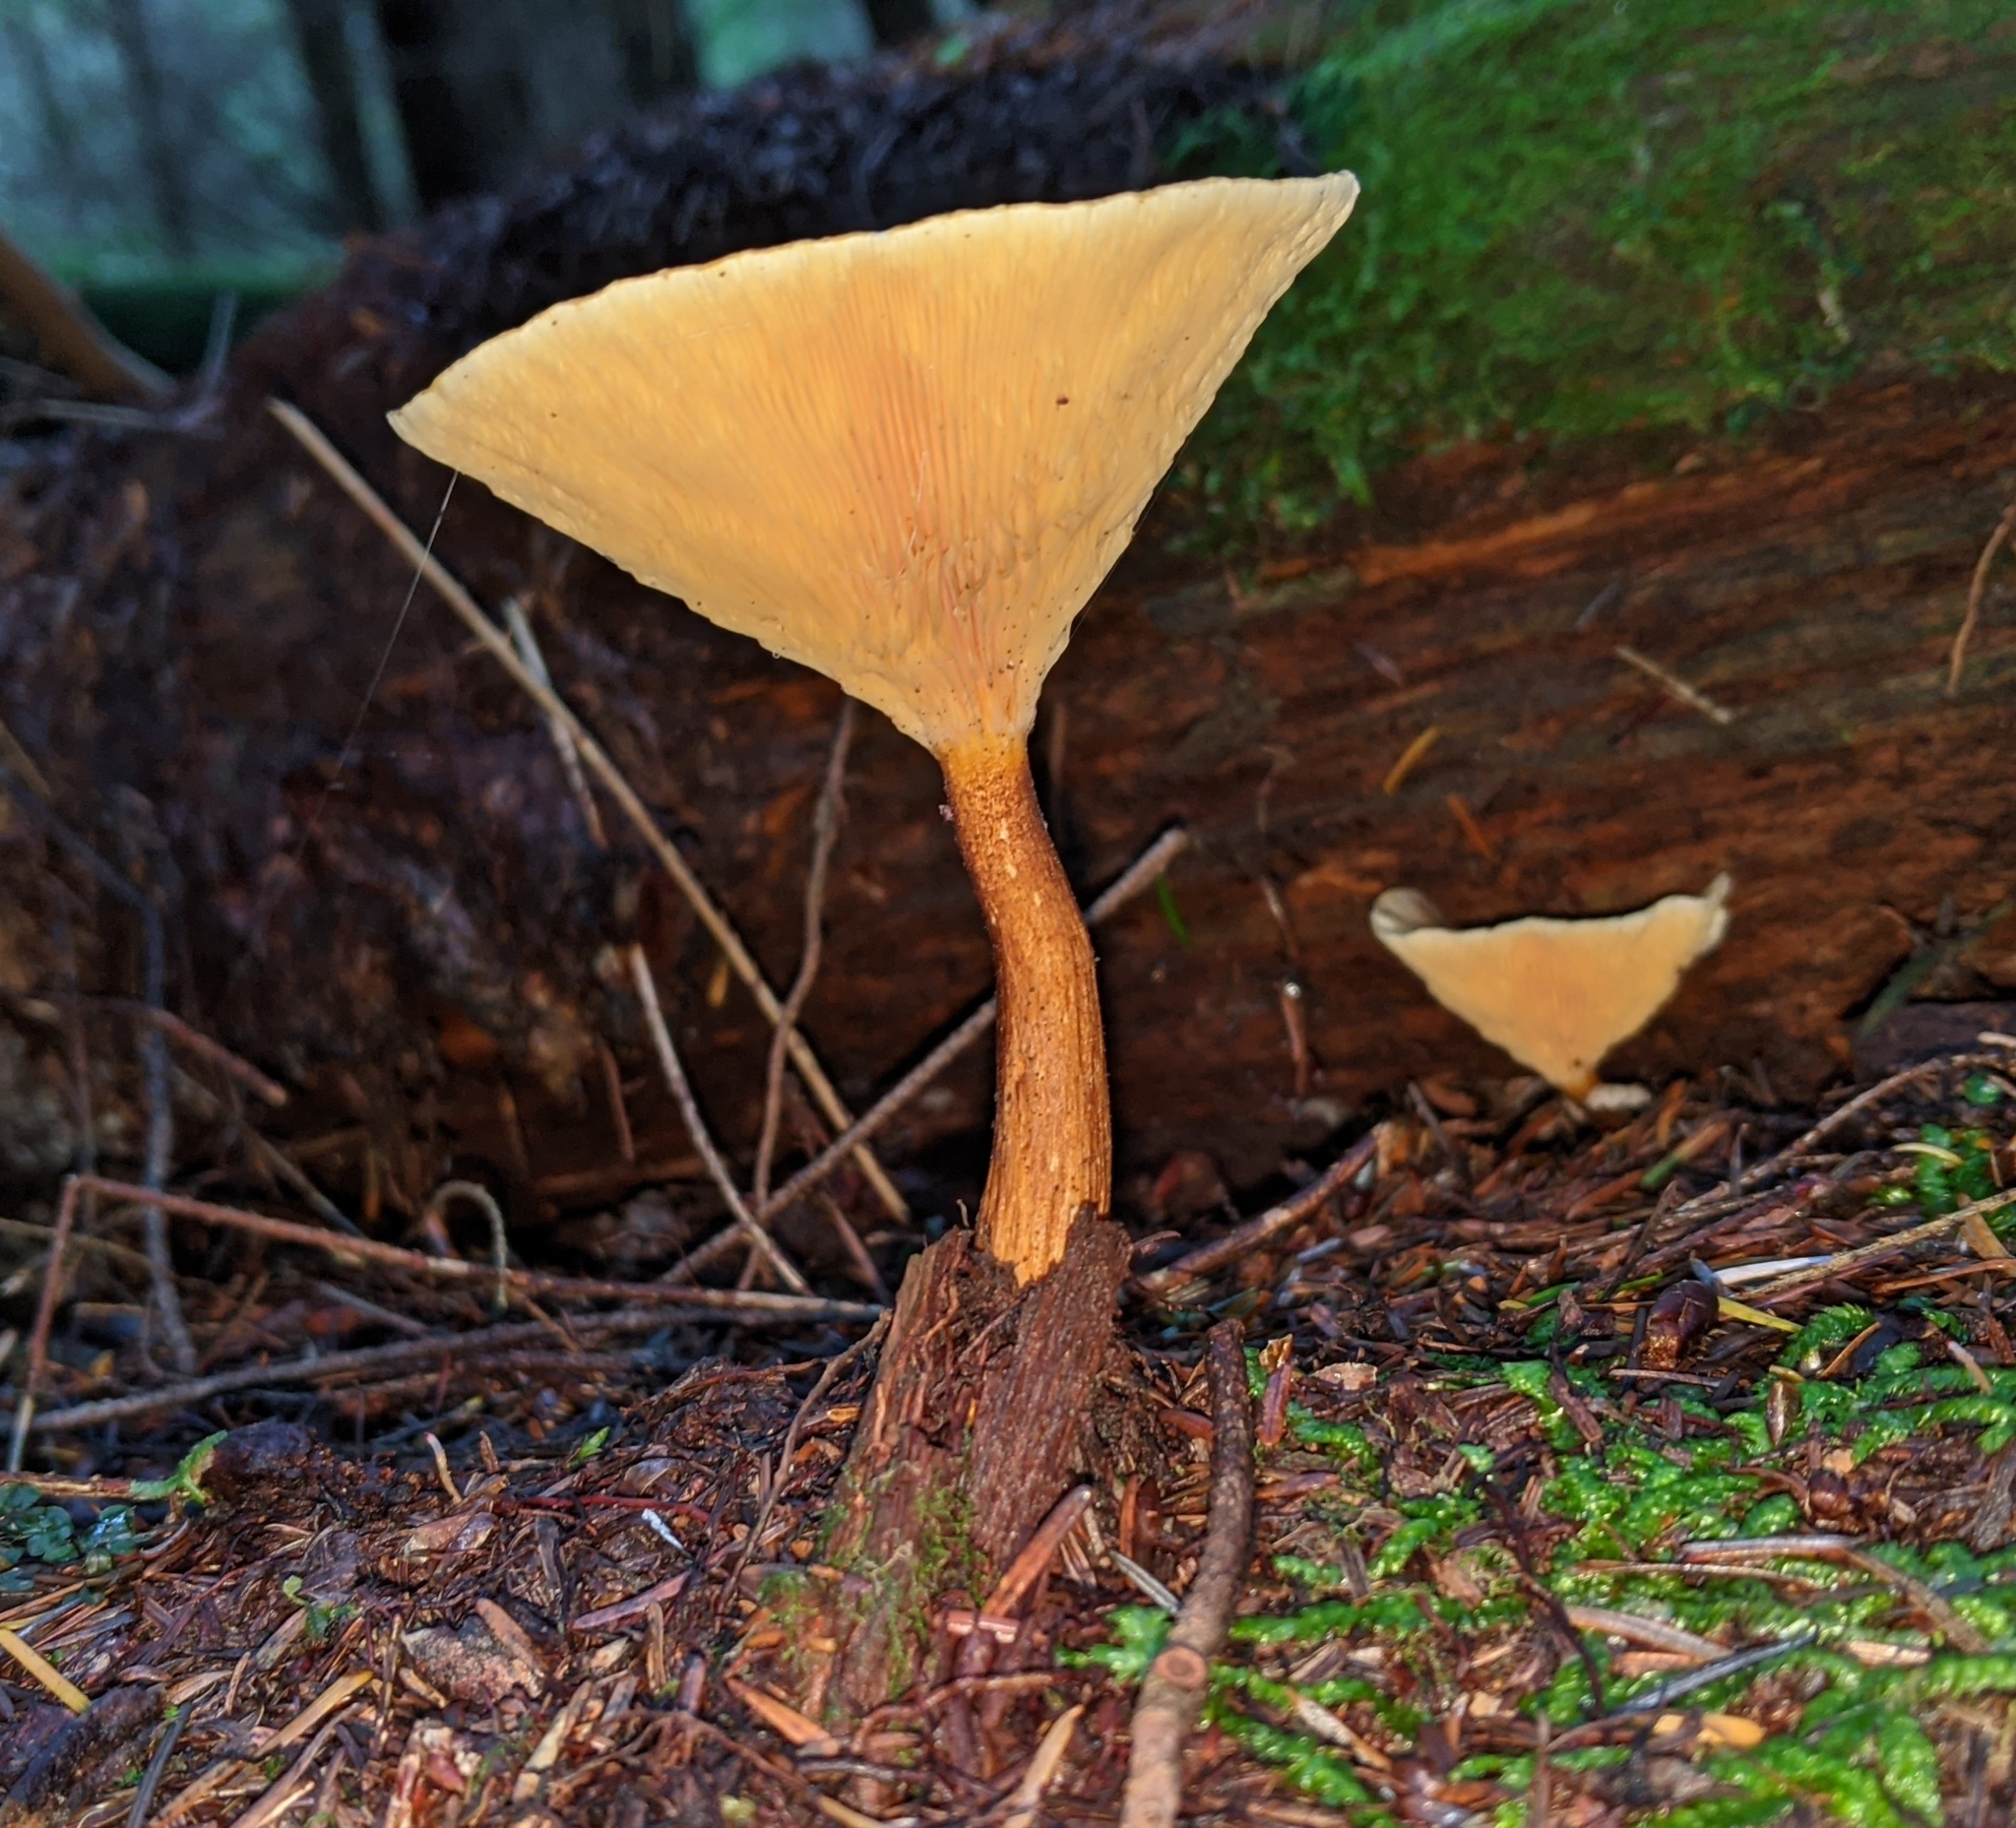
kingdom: Fungi
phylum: Basidiomycota
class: Agaricomycetes
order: Boletales
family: Hygrophoropsidaceae
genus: Hygrophoropsis
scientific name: Hygrophoropsis aurantiaca
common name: False chanterelle
